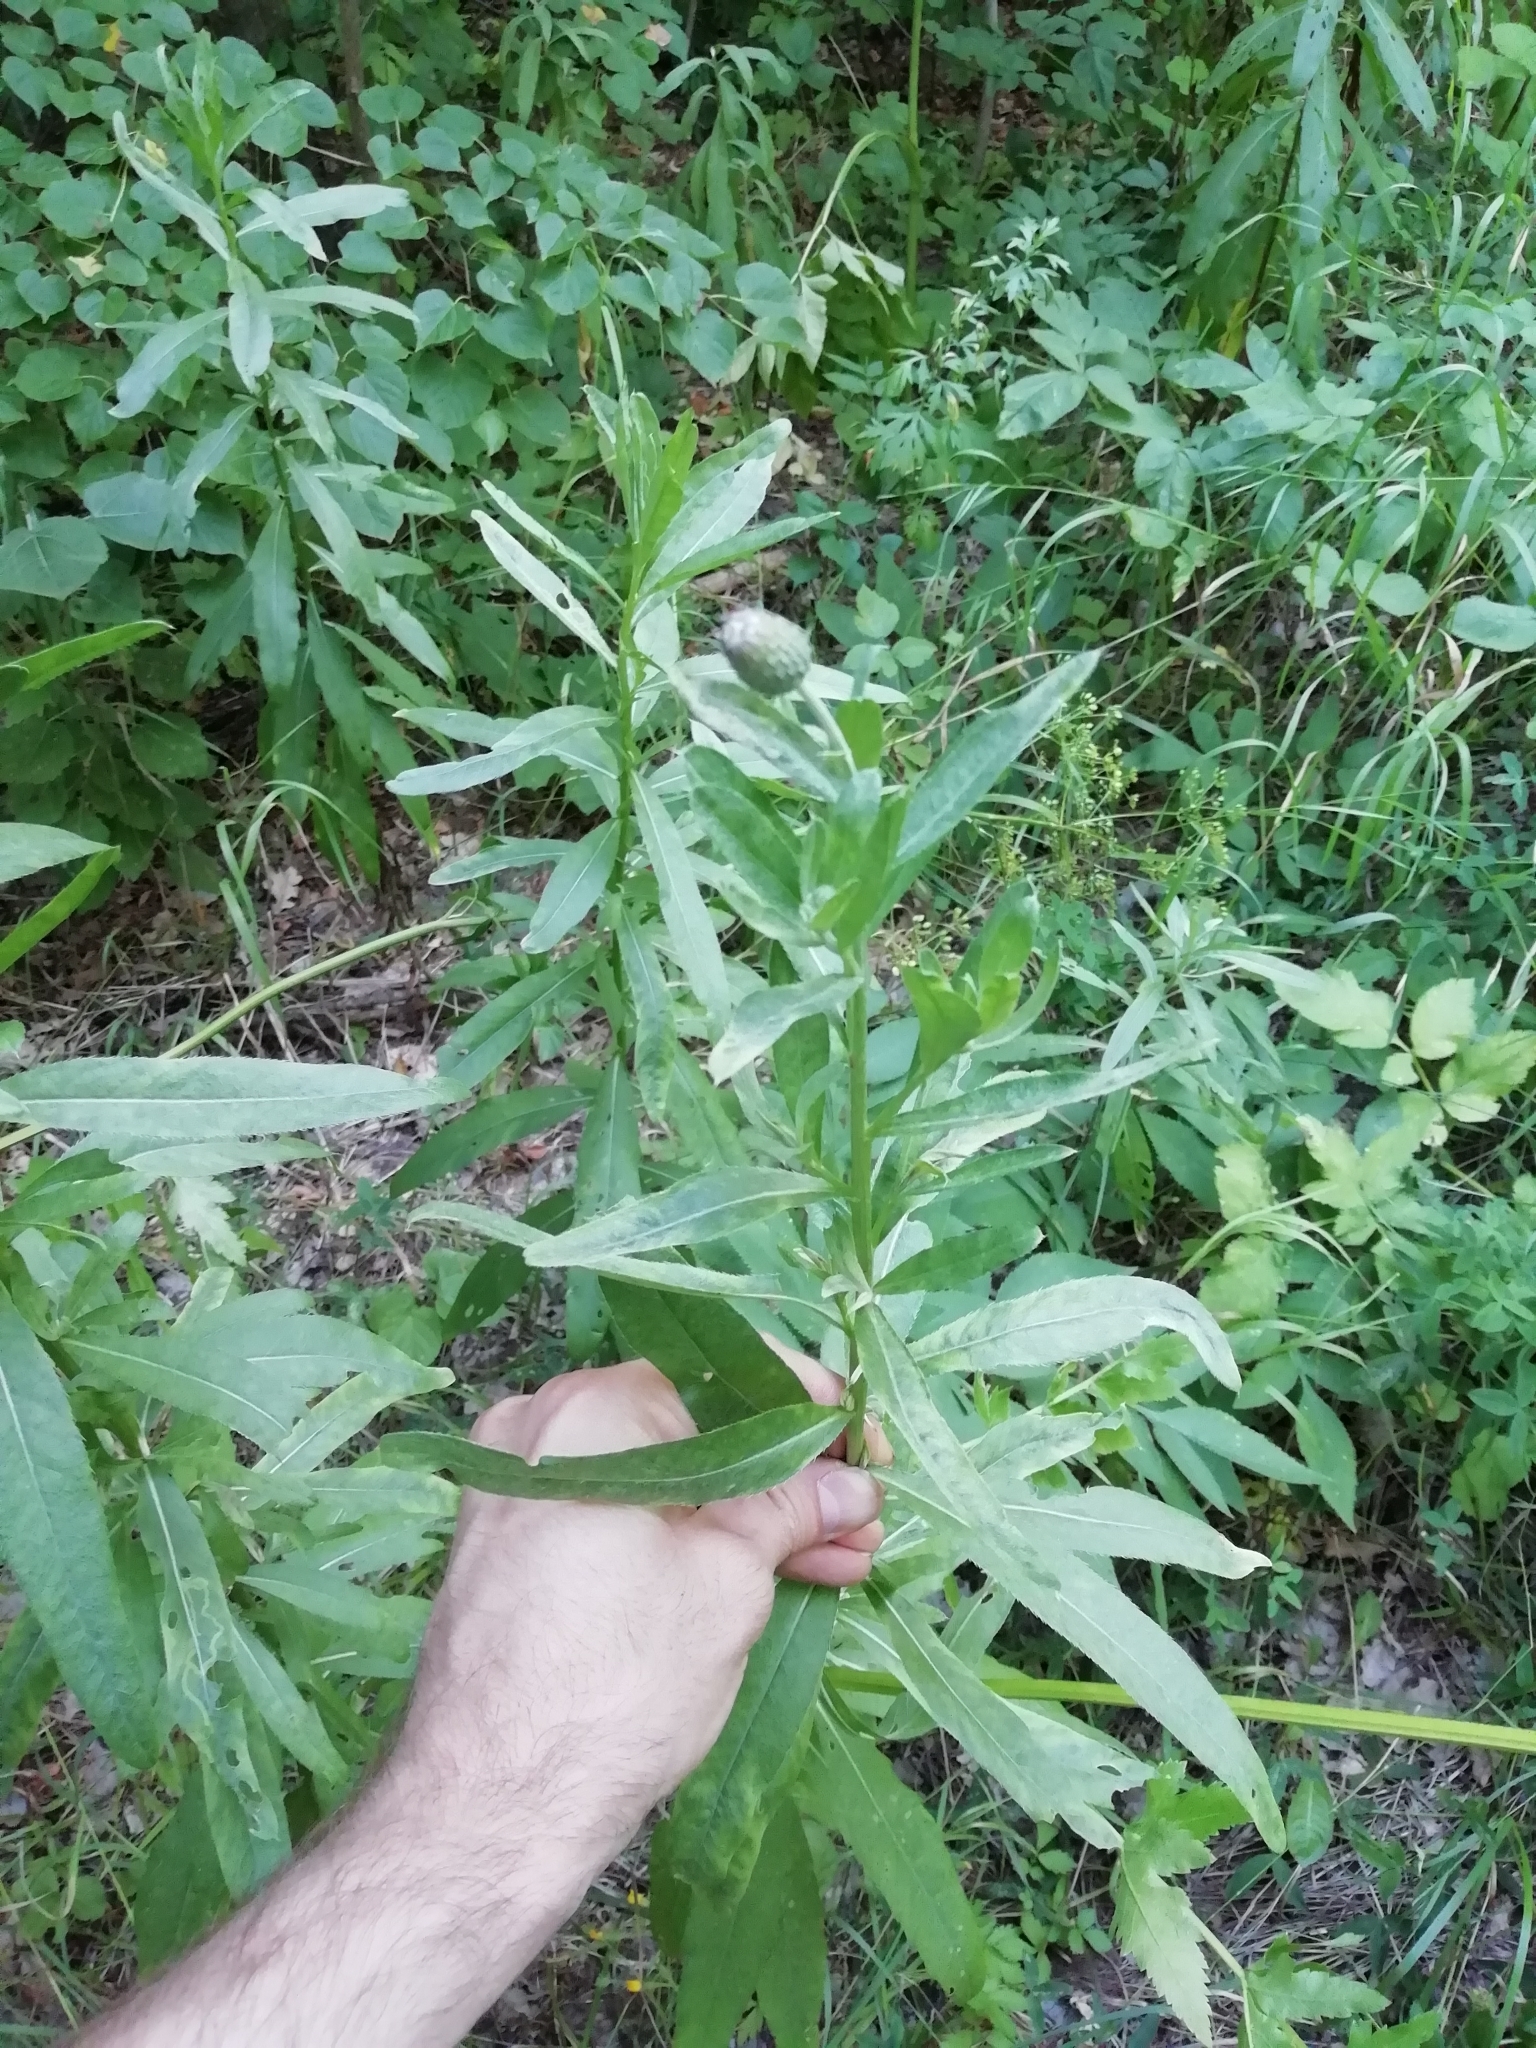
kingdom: Plantae
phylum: Tracheophyta
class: Magnoliopsida
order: Asterales
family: Asteraceae
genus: Cirsium
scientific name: Cirsium arvense
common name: Creeping thistle
